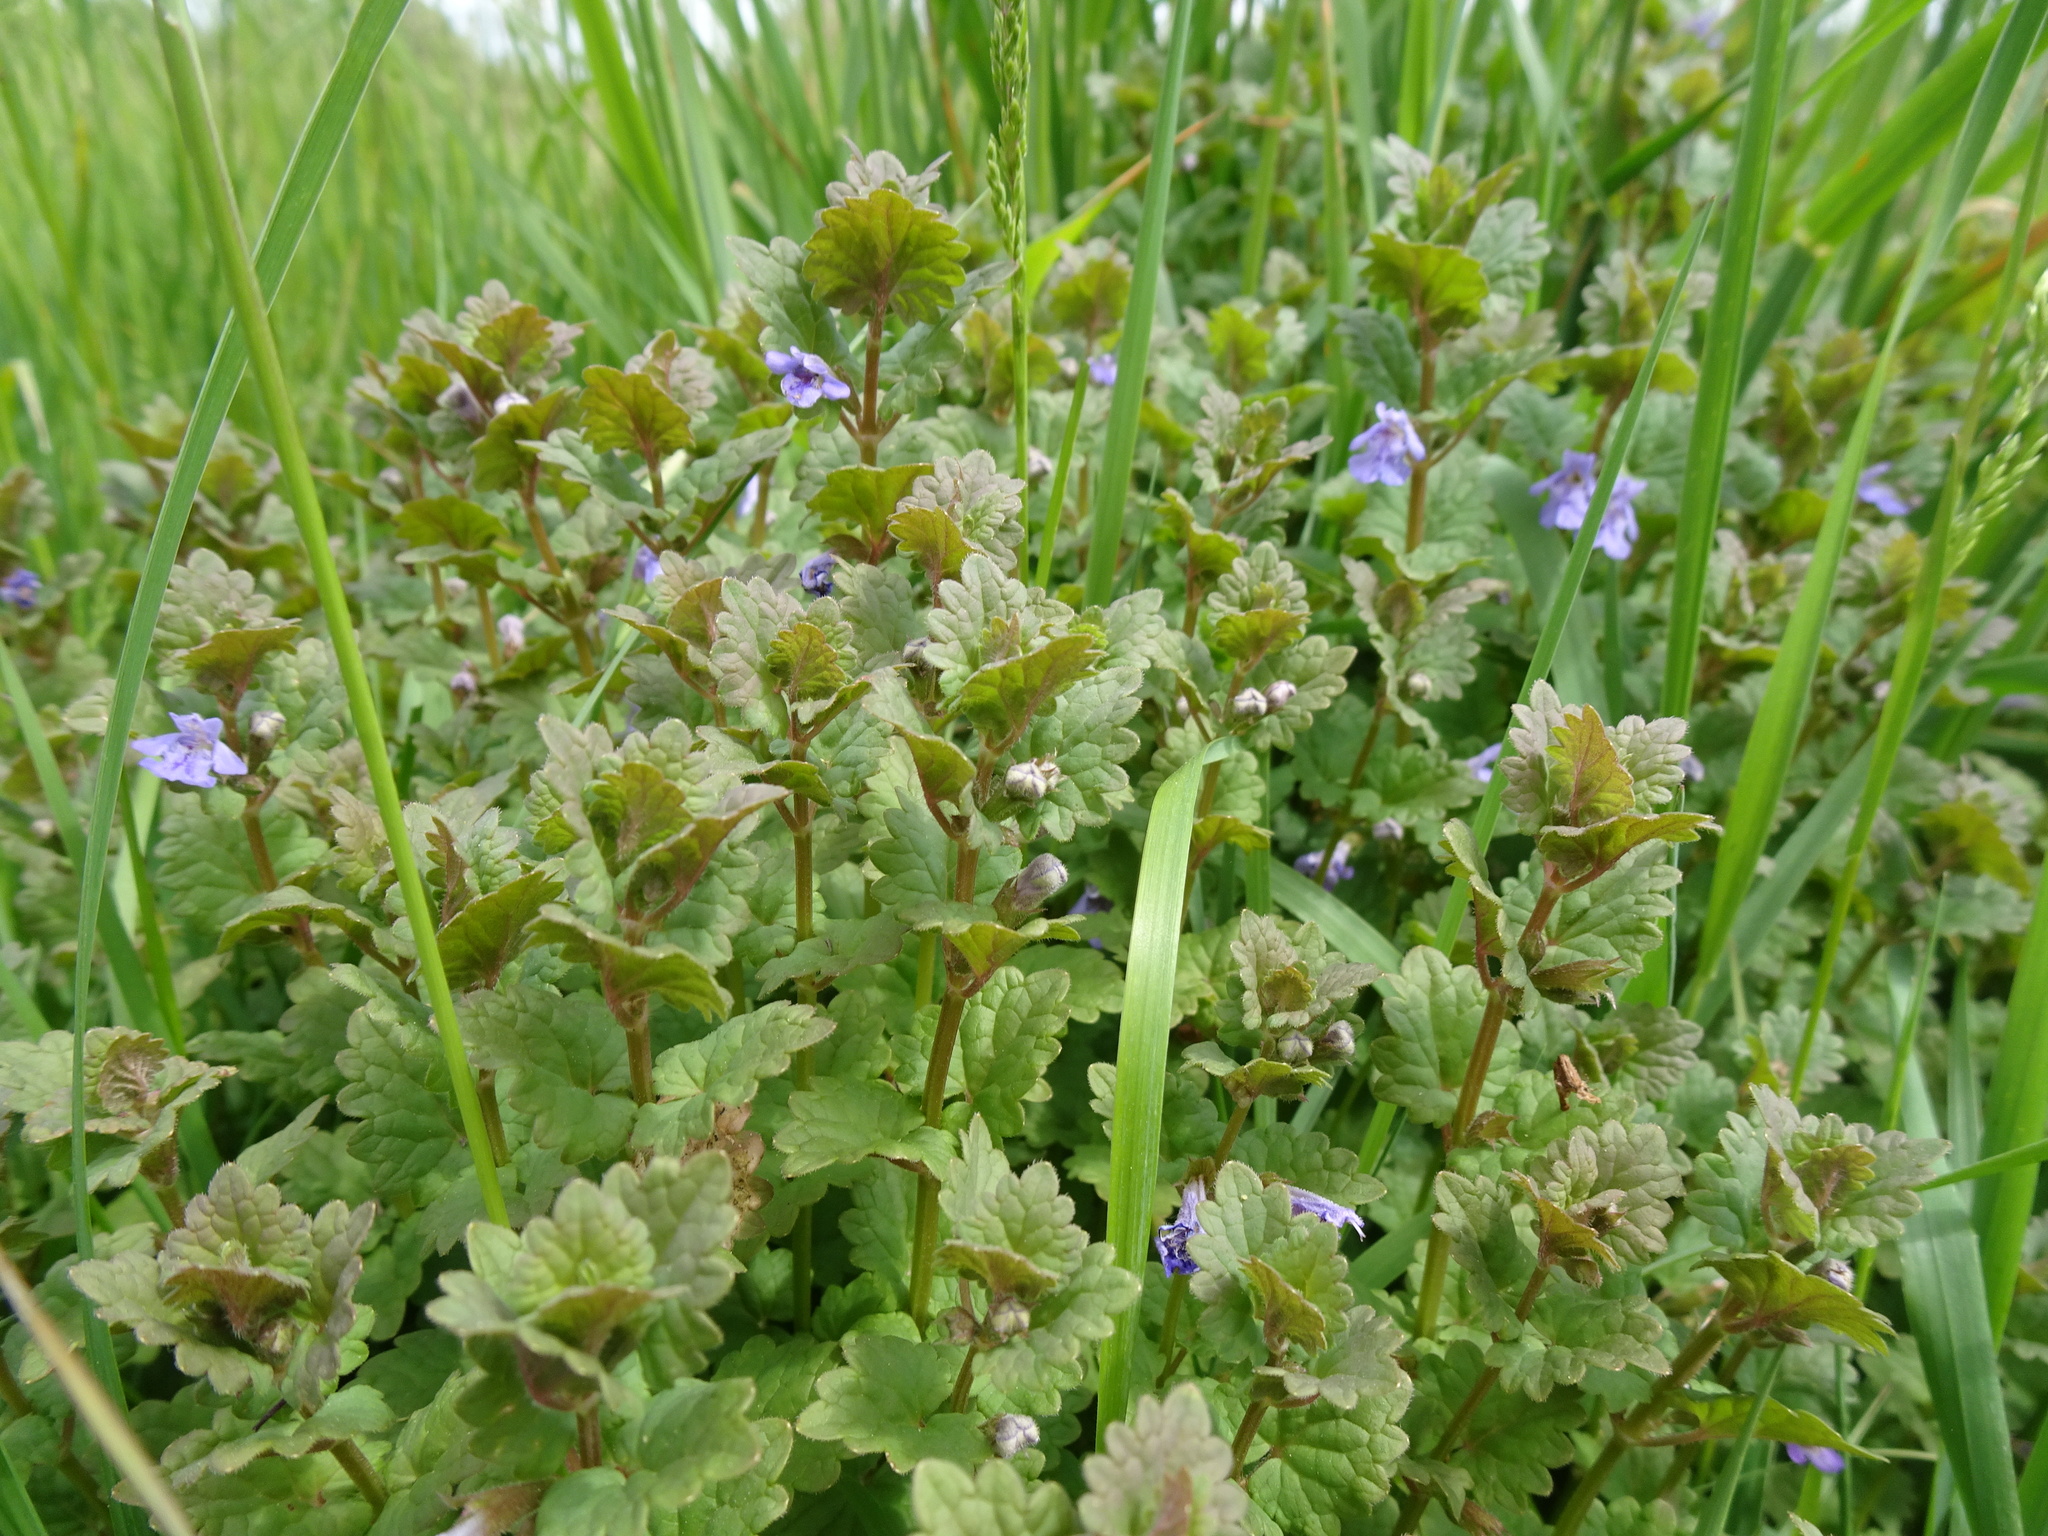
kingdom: Plantae
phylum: Tracheophyta
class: Magnoliopsida
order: Lamiales
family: Lamiaceae
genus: Glechoma
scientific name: Glechoma hederacea
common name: Ground ivy
